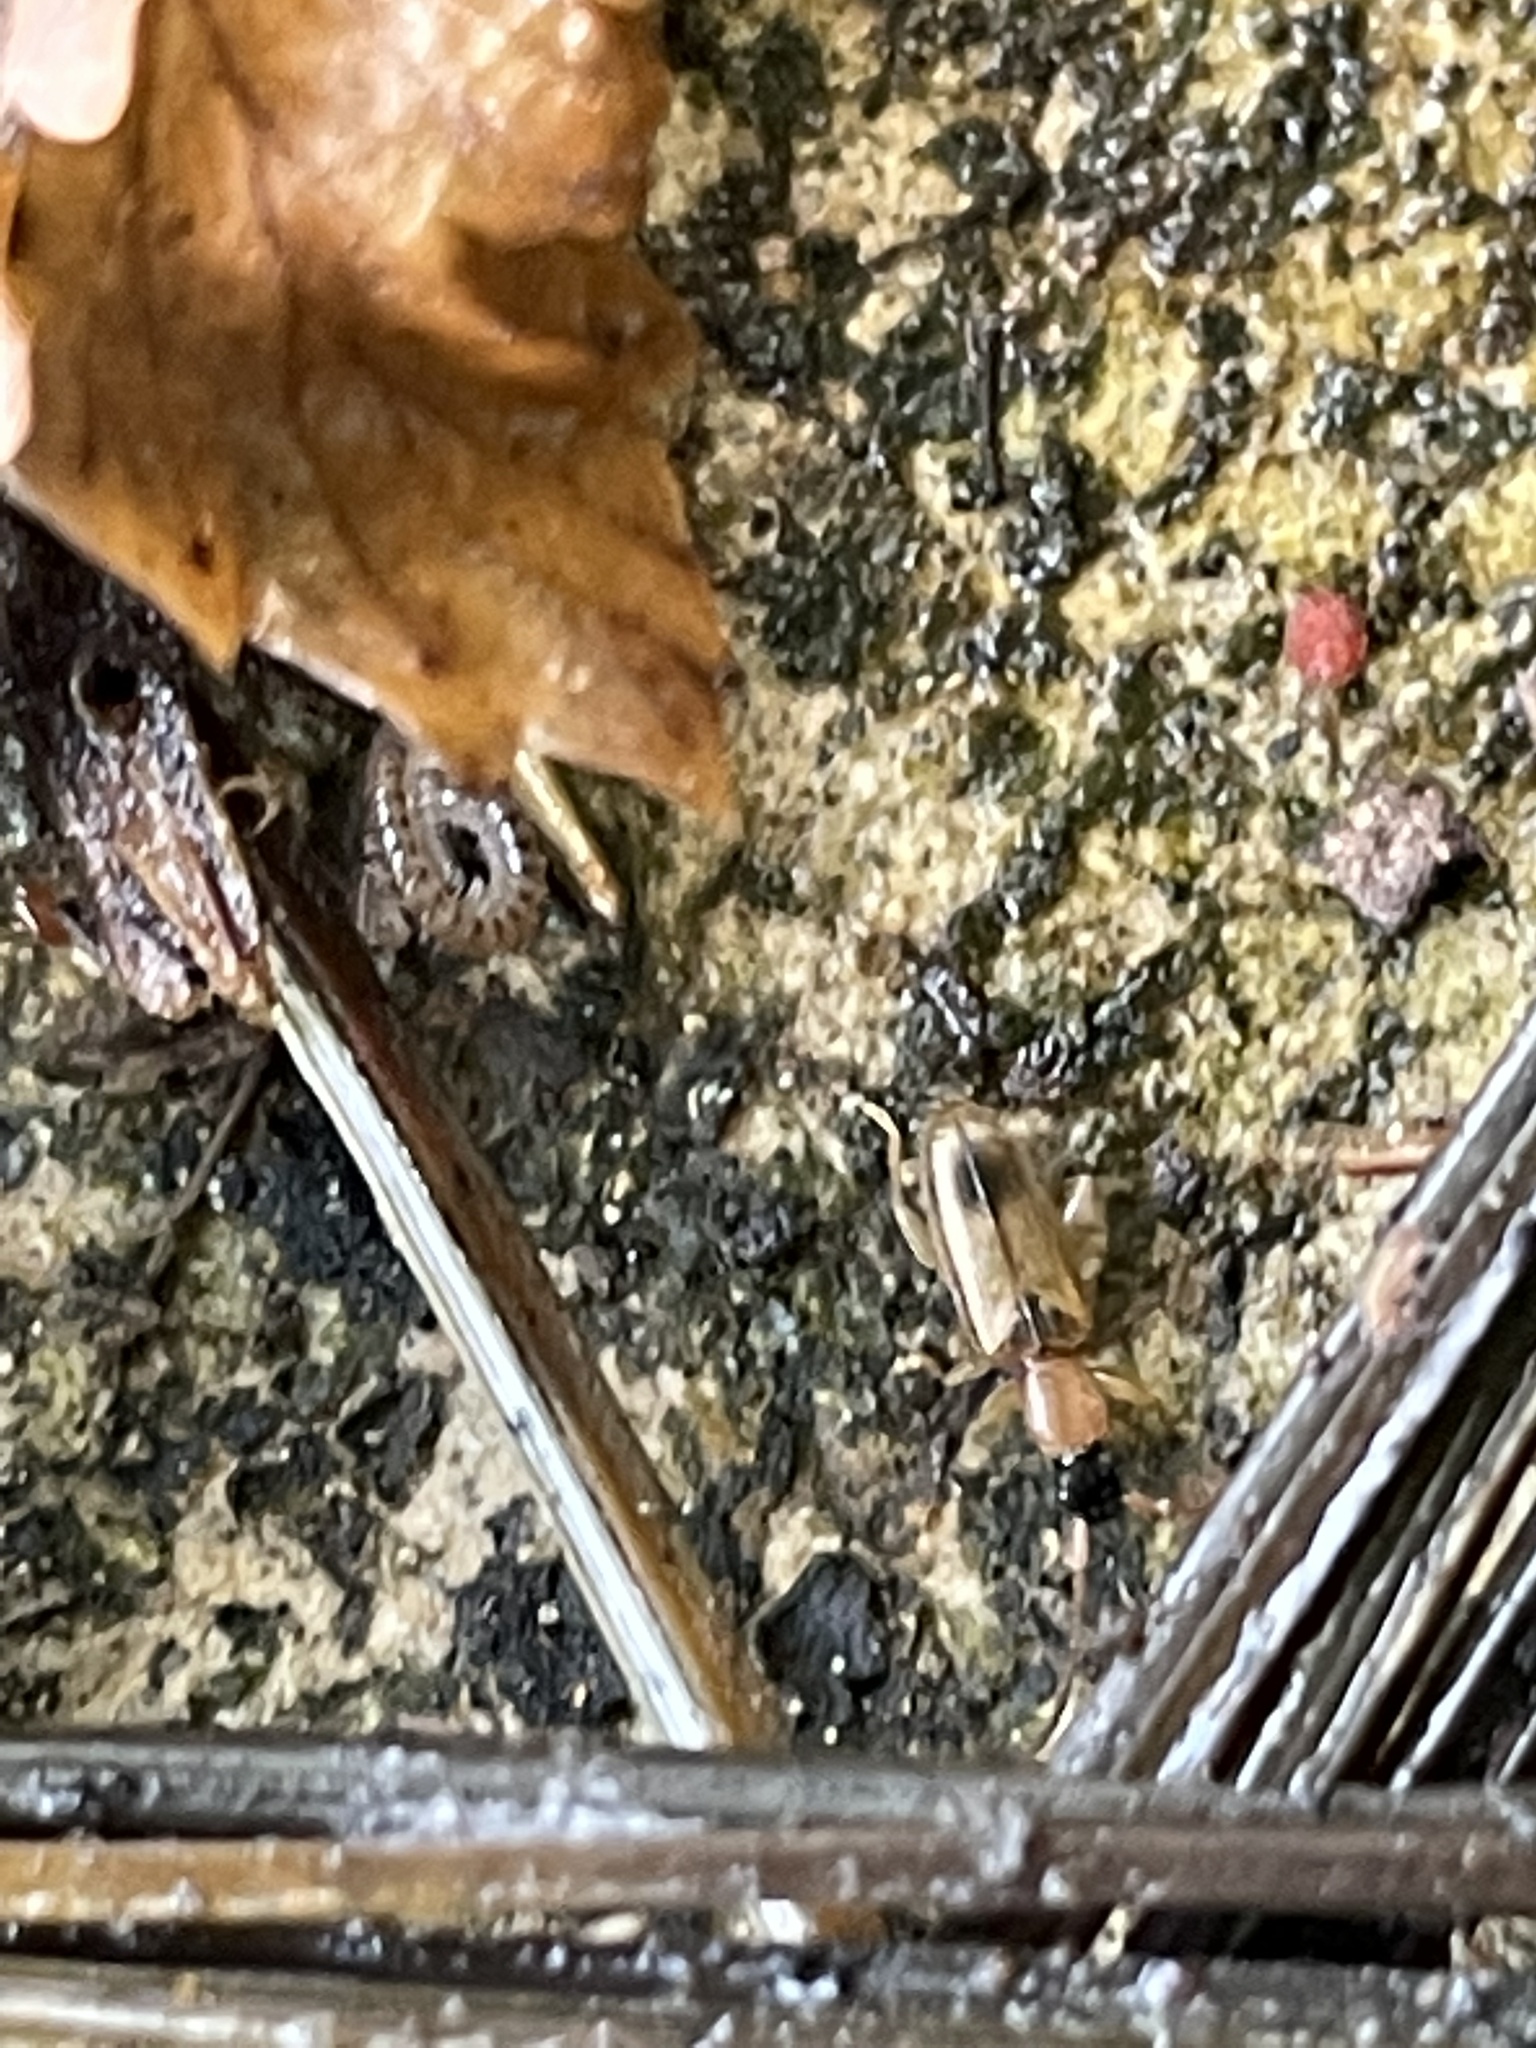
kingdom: Animalia
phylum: Arthropoda
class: Insecta
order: Coleoptera
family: Silvanidae
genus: Telephanus
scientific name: Telephanus velox
